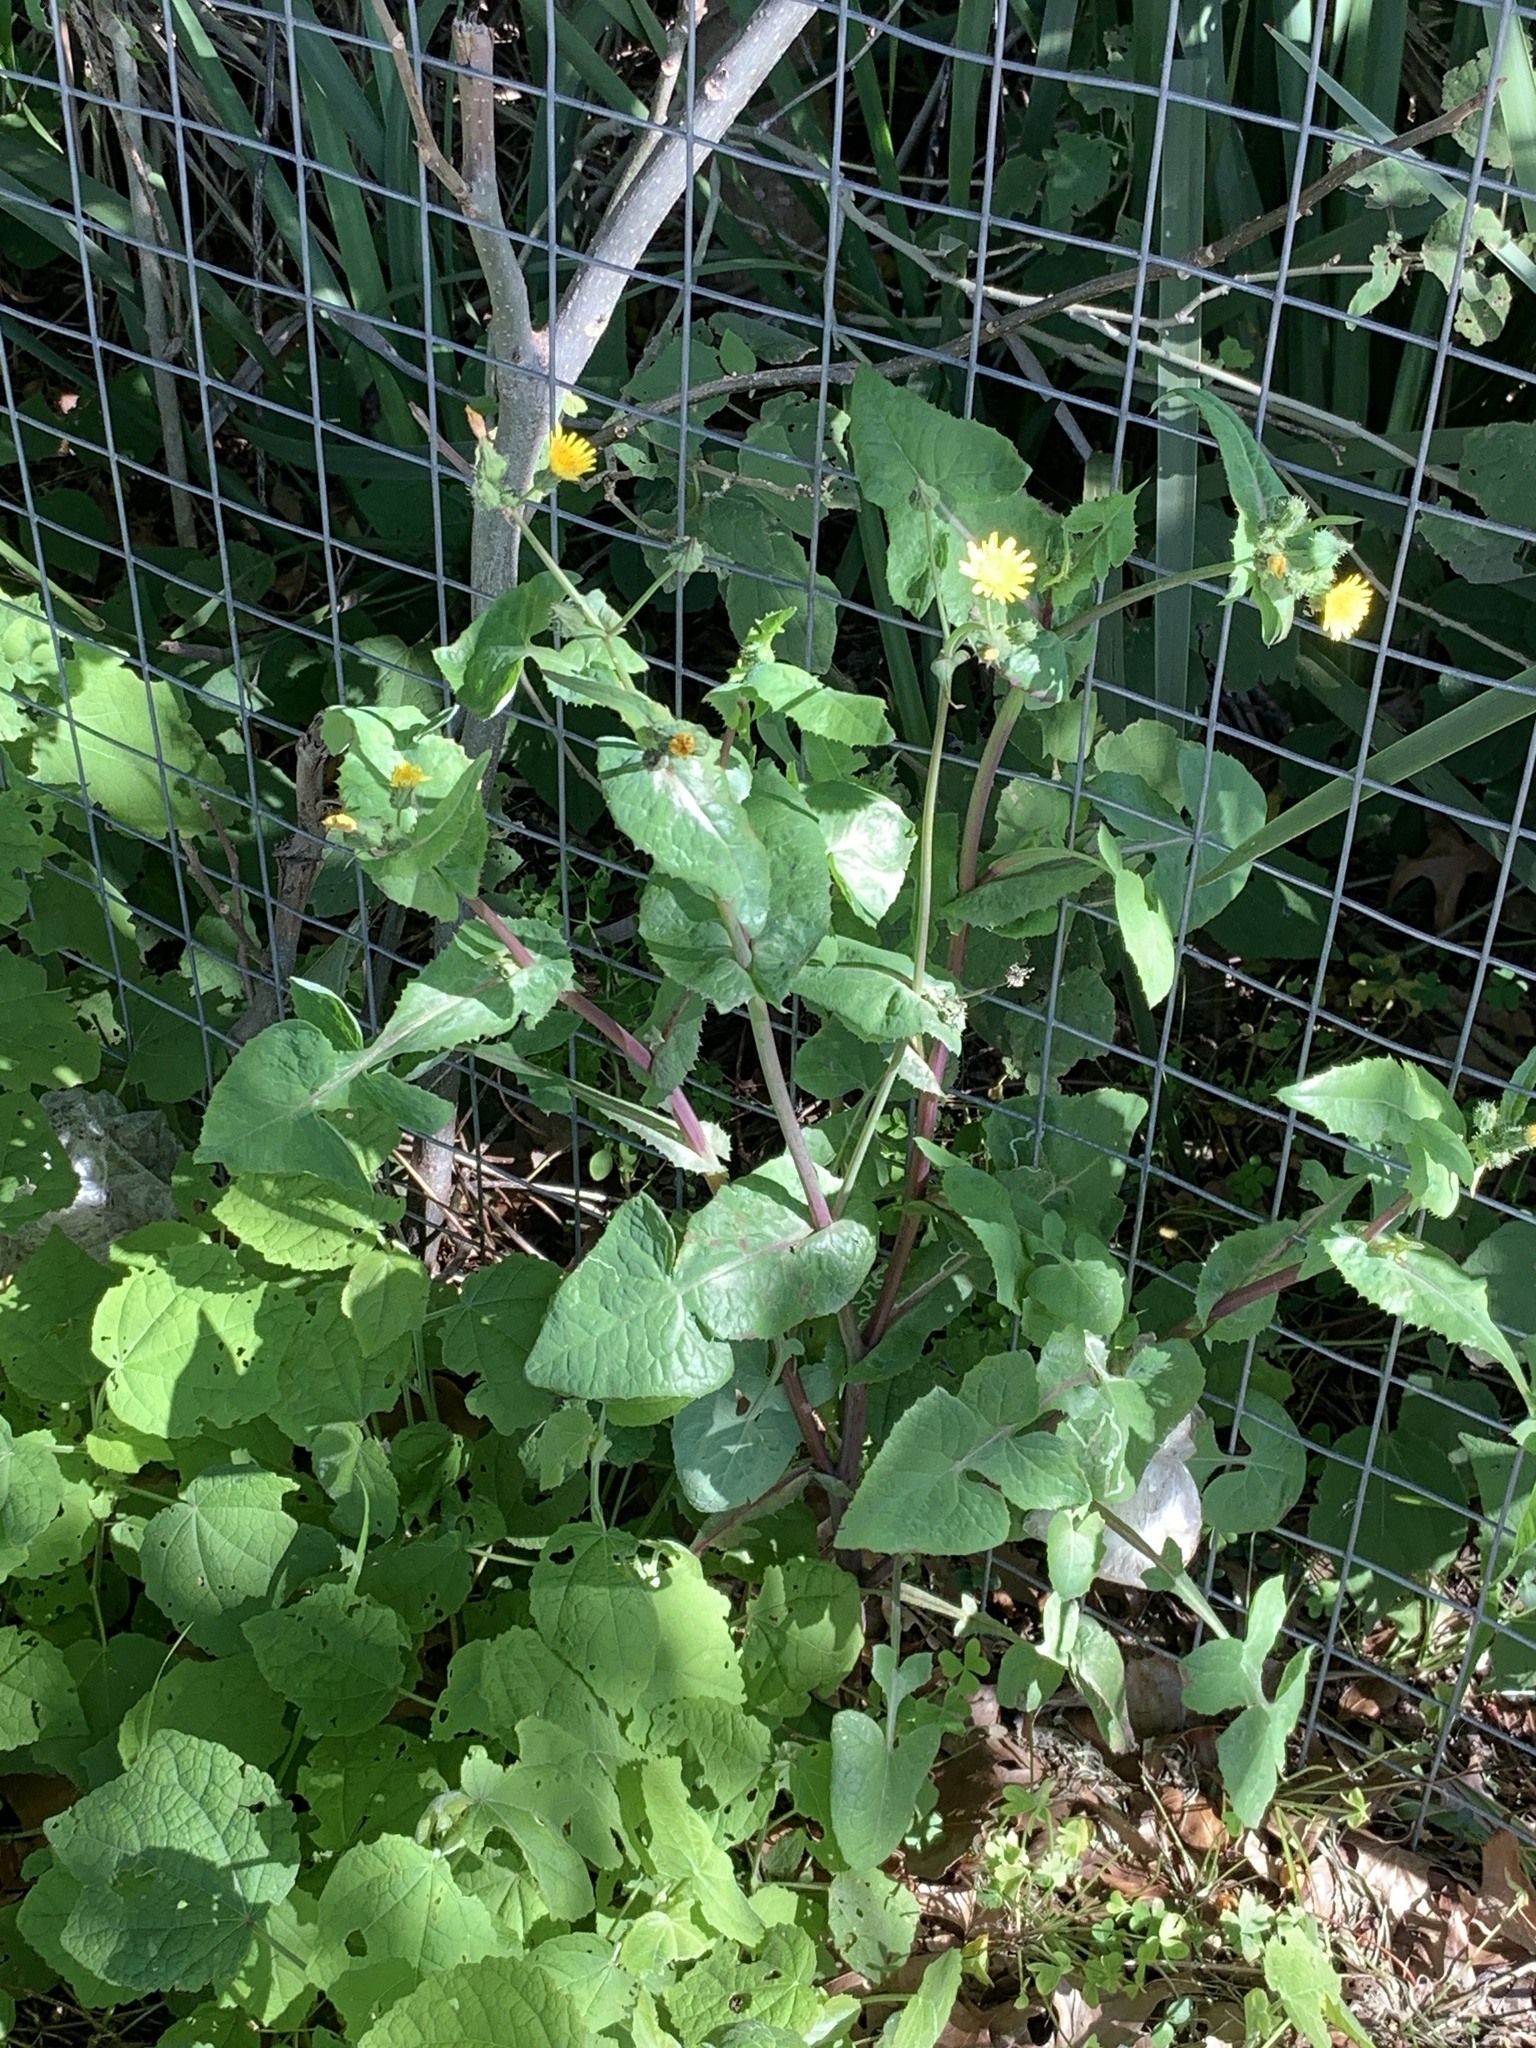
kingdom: Plantae
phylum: Tracheophyta
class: Magnoliopsida
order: Asterales
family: Asteraceae
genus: Sonchus
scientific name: Sonchus oleraceus
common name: Common sowthistle
